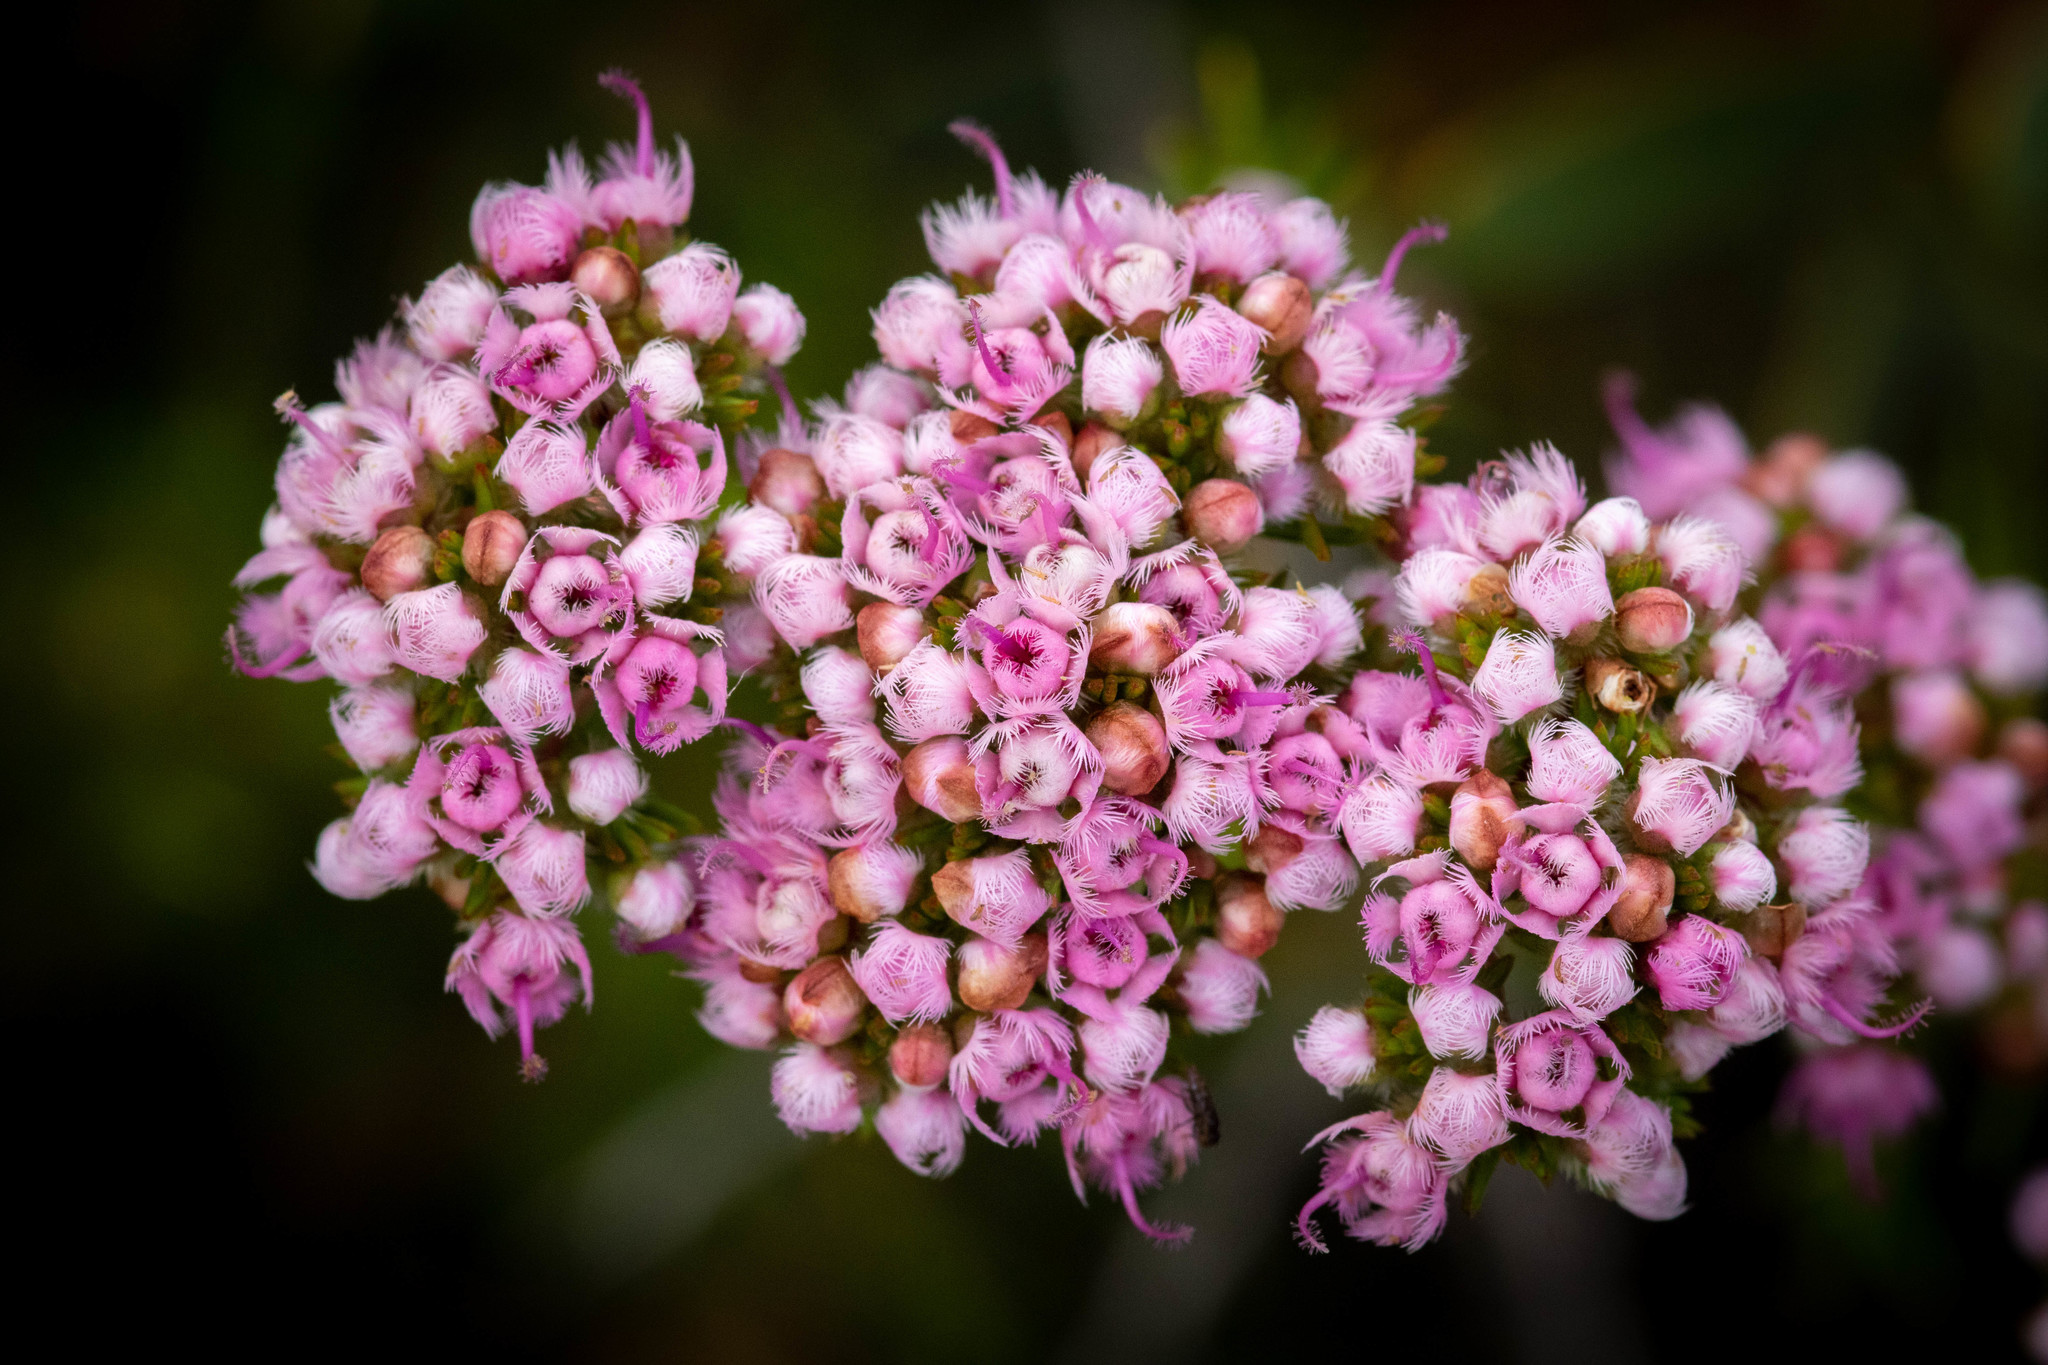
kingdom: Plantae
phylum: Tracheophyta
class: Magnoliopsida
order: Myrtales
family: Myrtaceae
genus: Verticordia
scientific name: Verticordia densiflora
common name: Compact feather-flower
